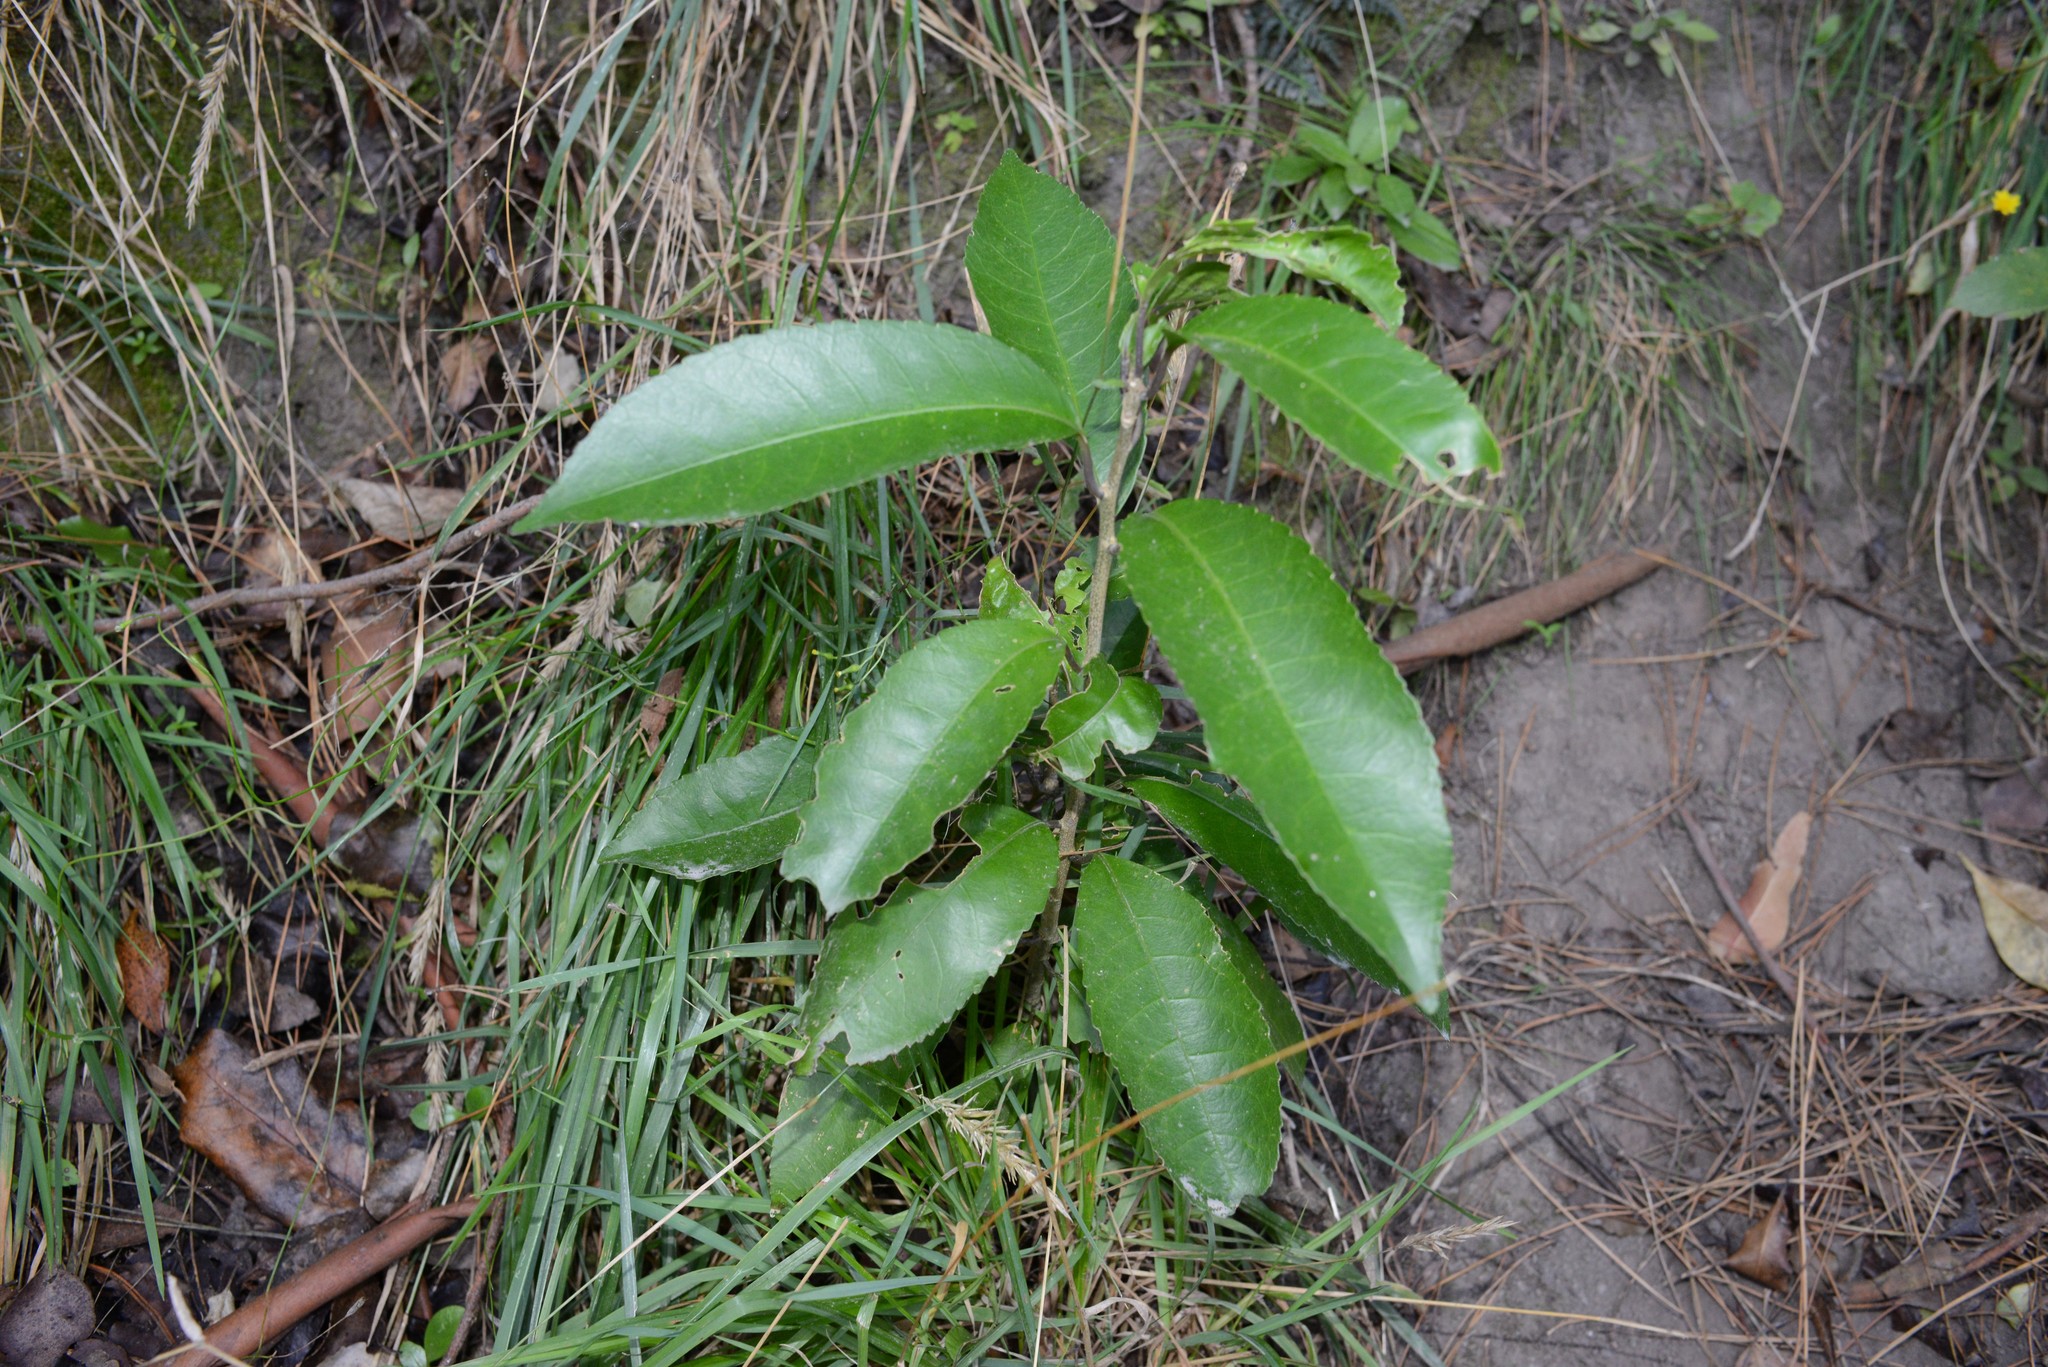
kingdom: Plantae
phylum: Tracheophyta
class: Magnoliopsida
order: Malpighiales
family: Violaceae
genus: Melicytus
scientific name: Melicytus ramiflorus
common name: Mahoe
